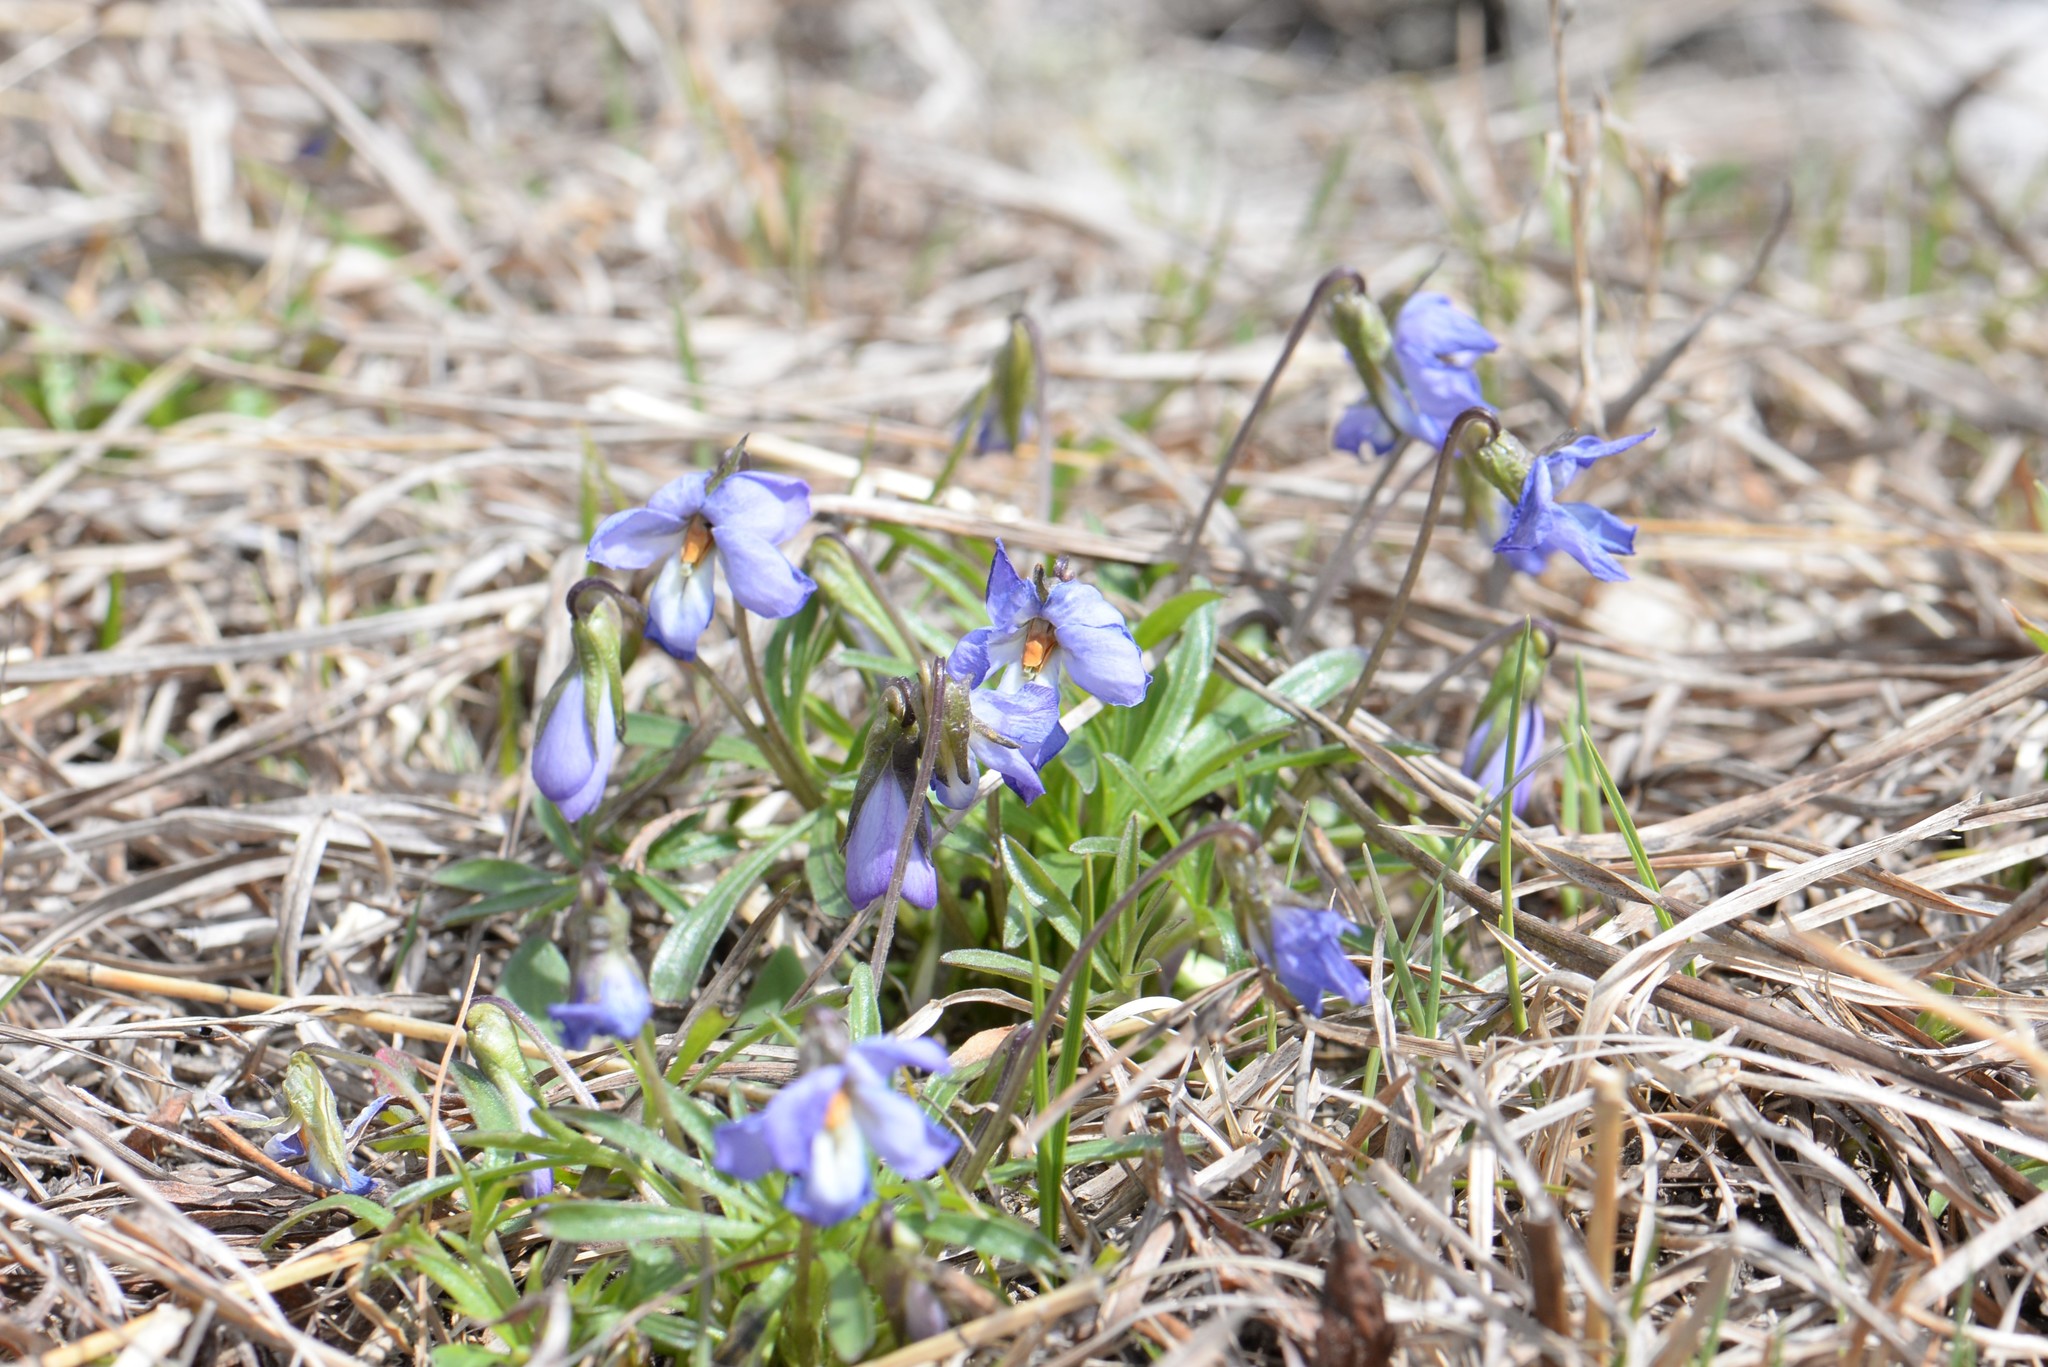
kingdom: Plantae
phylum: Tracheophyta
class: Magnoliopsida
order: Malpighiales
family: Violaceae
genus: Viola
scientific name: Viola pedata
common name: Pansy violet
